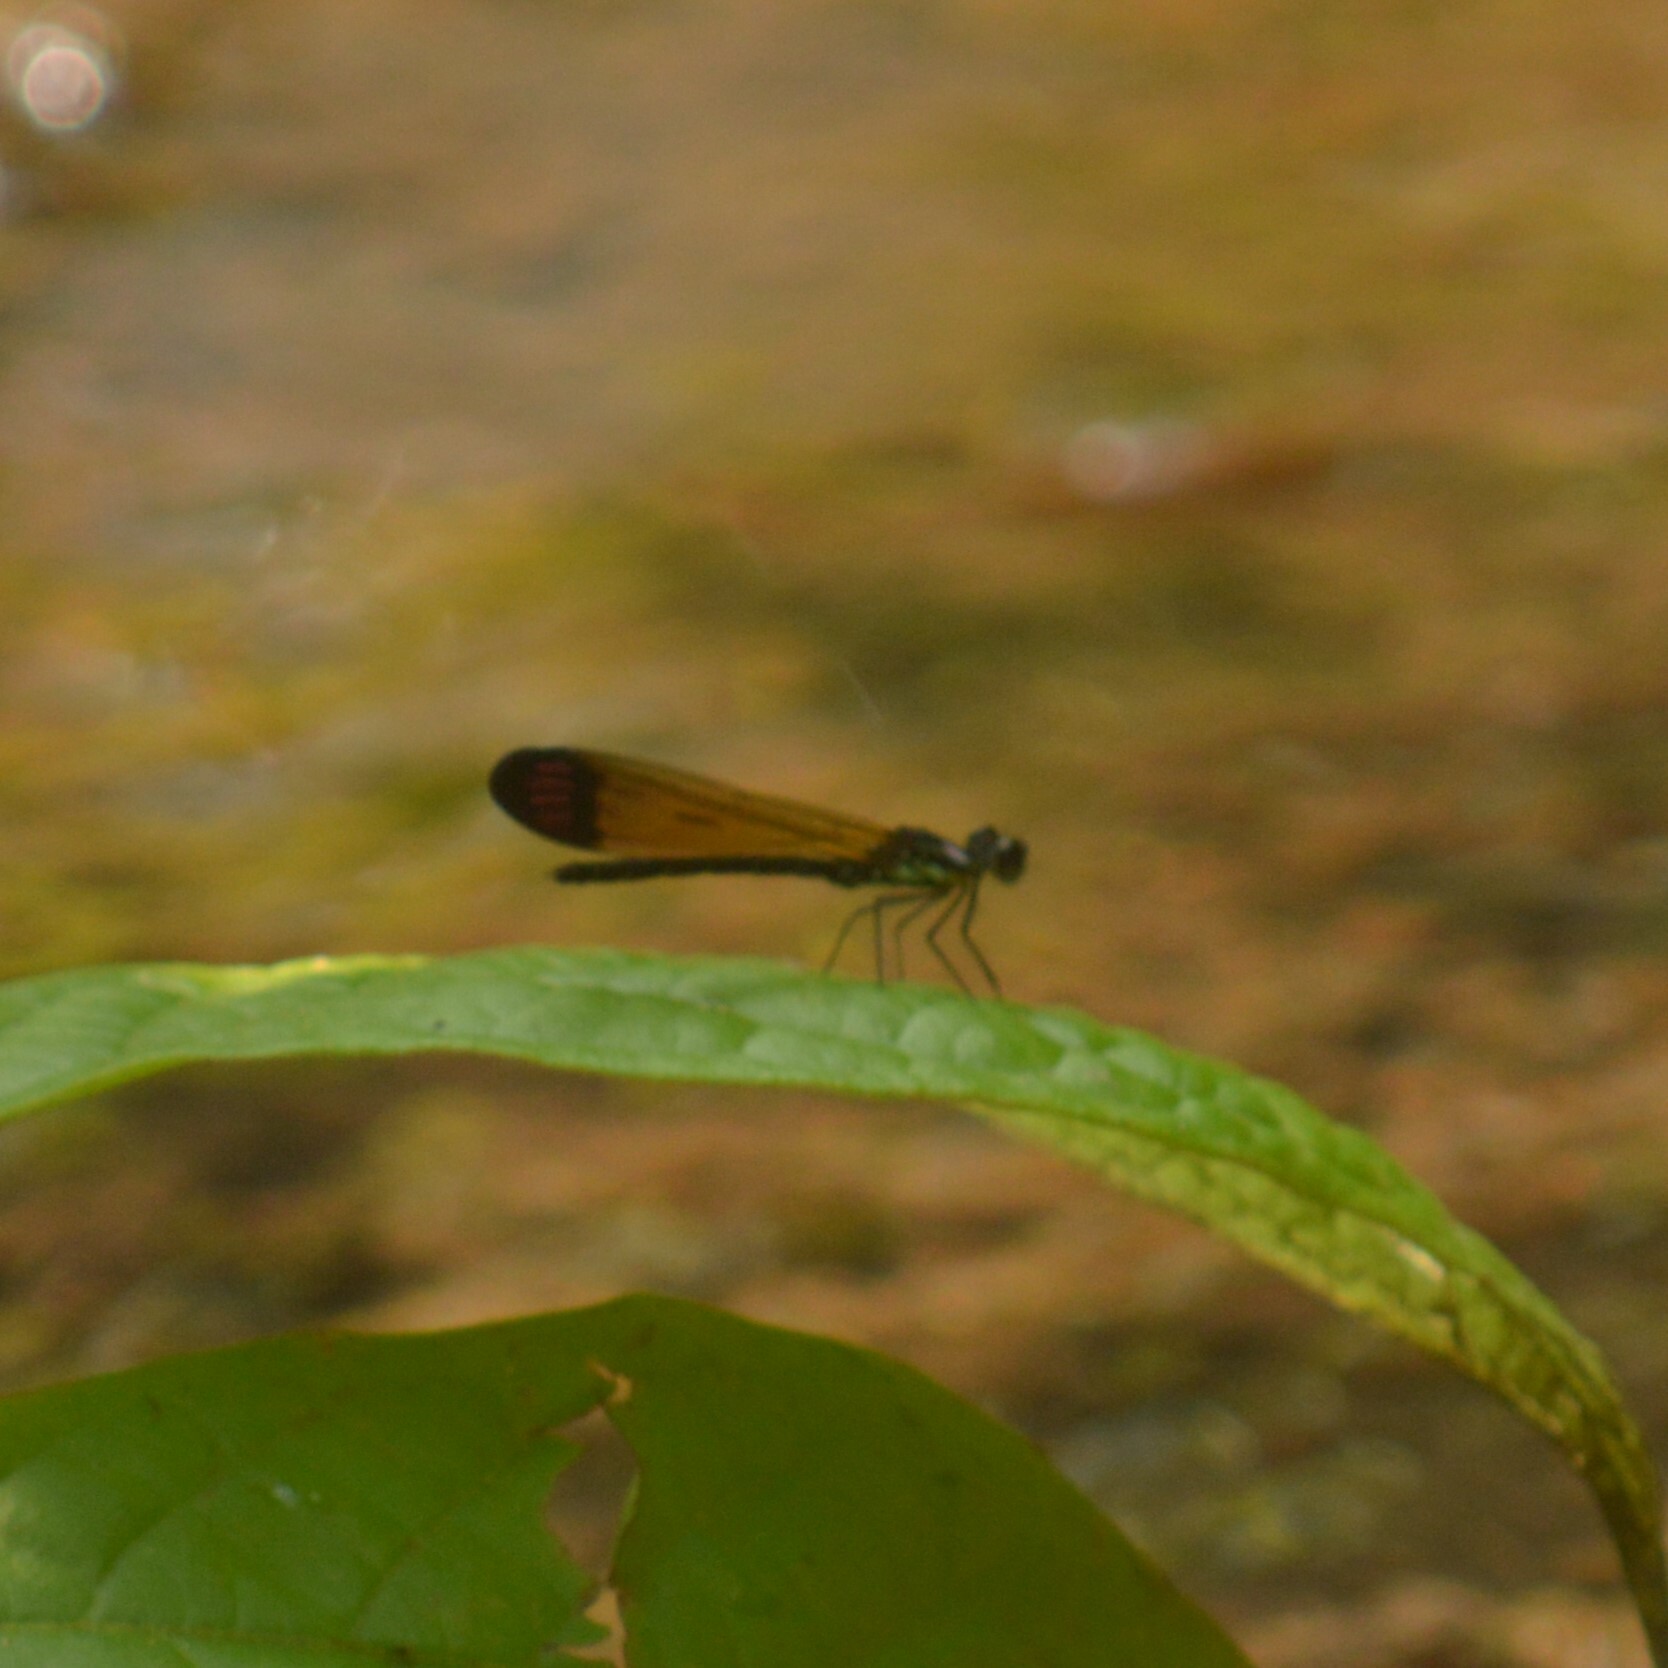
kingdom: Animalia
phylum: Arthropoda
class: Insecta
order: Odonata
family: Chlorocyphidae
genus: Heliocypha
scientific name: Heliocypha biforata
